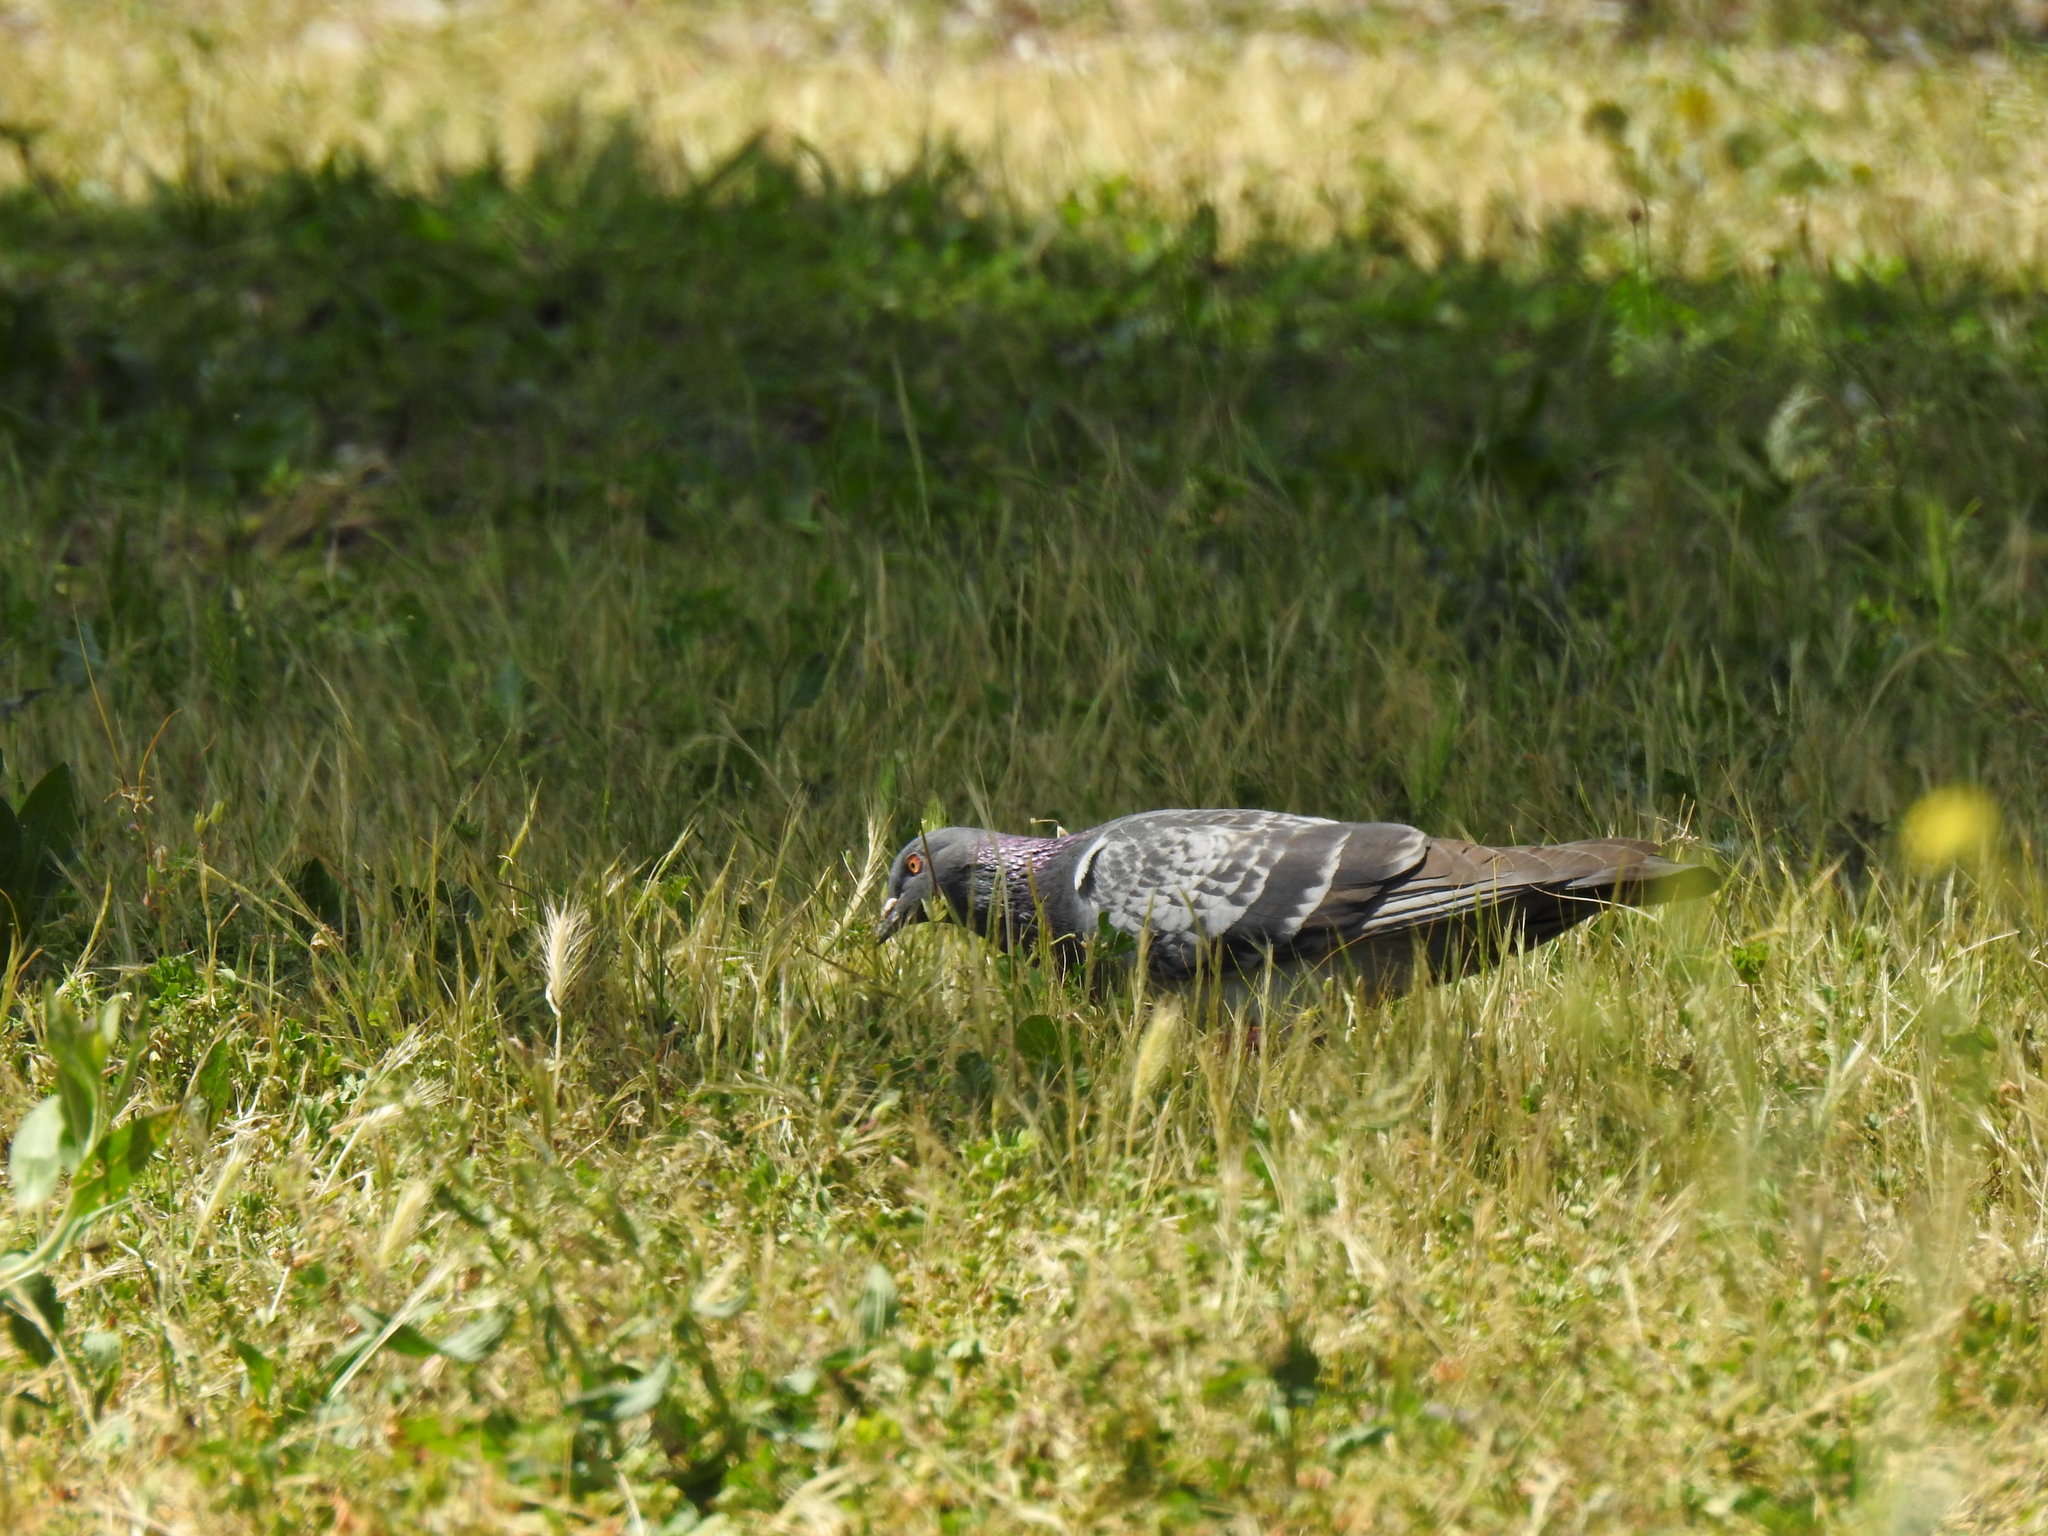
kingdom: Animalia
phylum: Chordata
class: Aves
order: Columbiformes
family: Columbidae
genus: Columba
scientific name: Columba livia
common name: Rock pigeon
